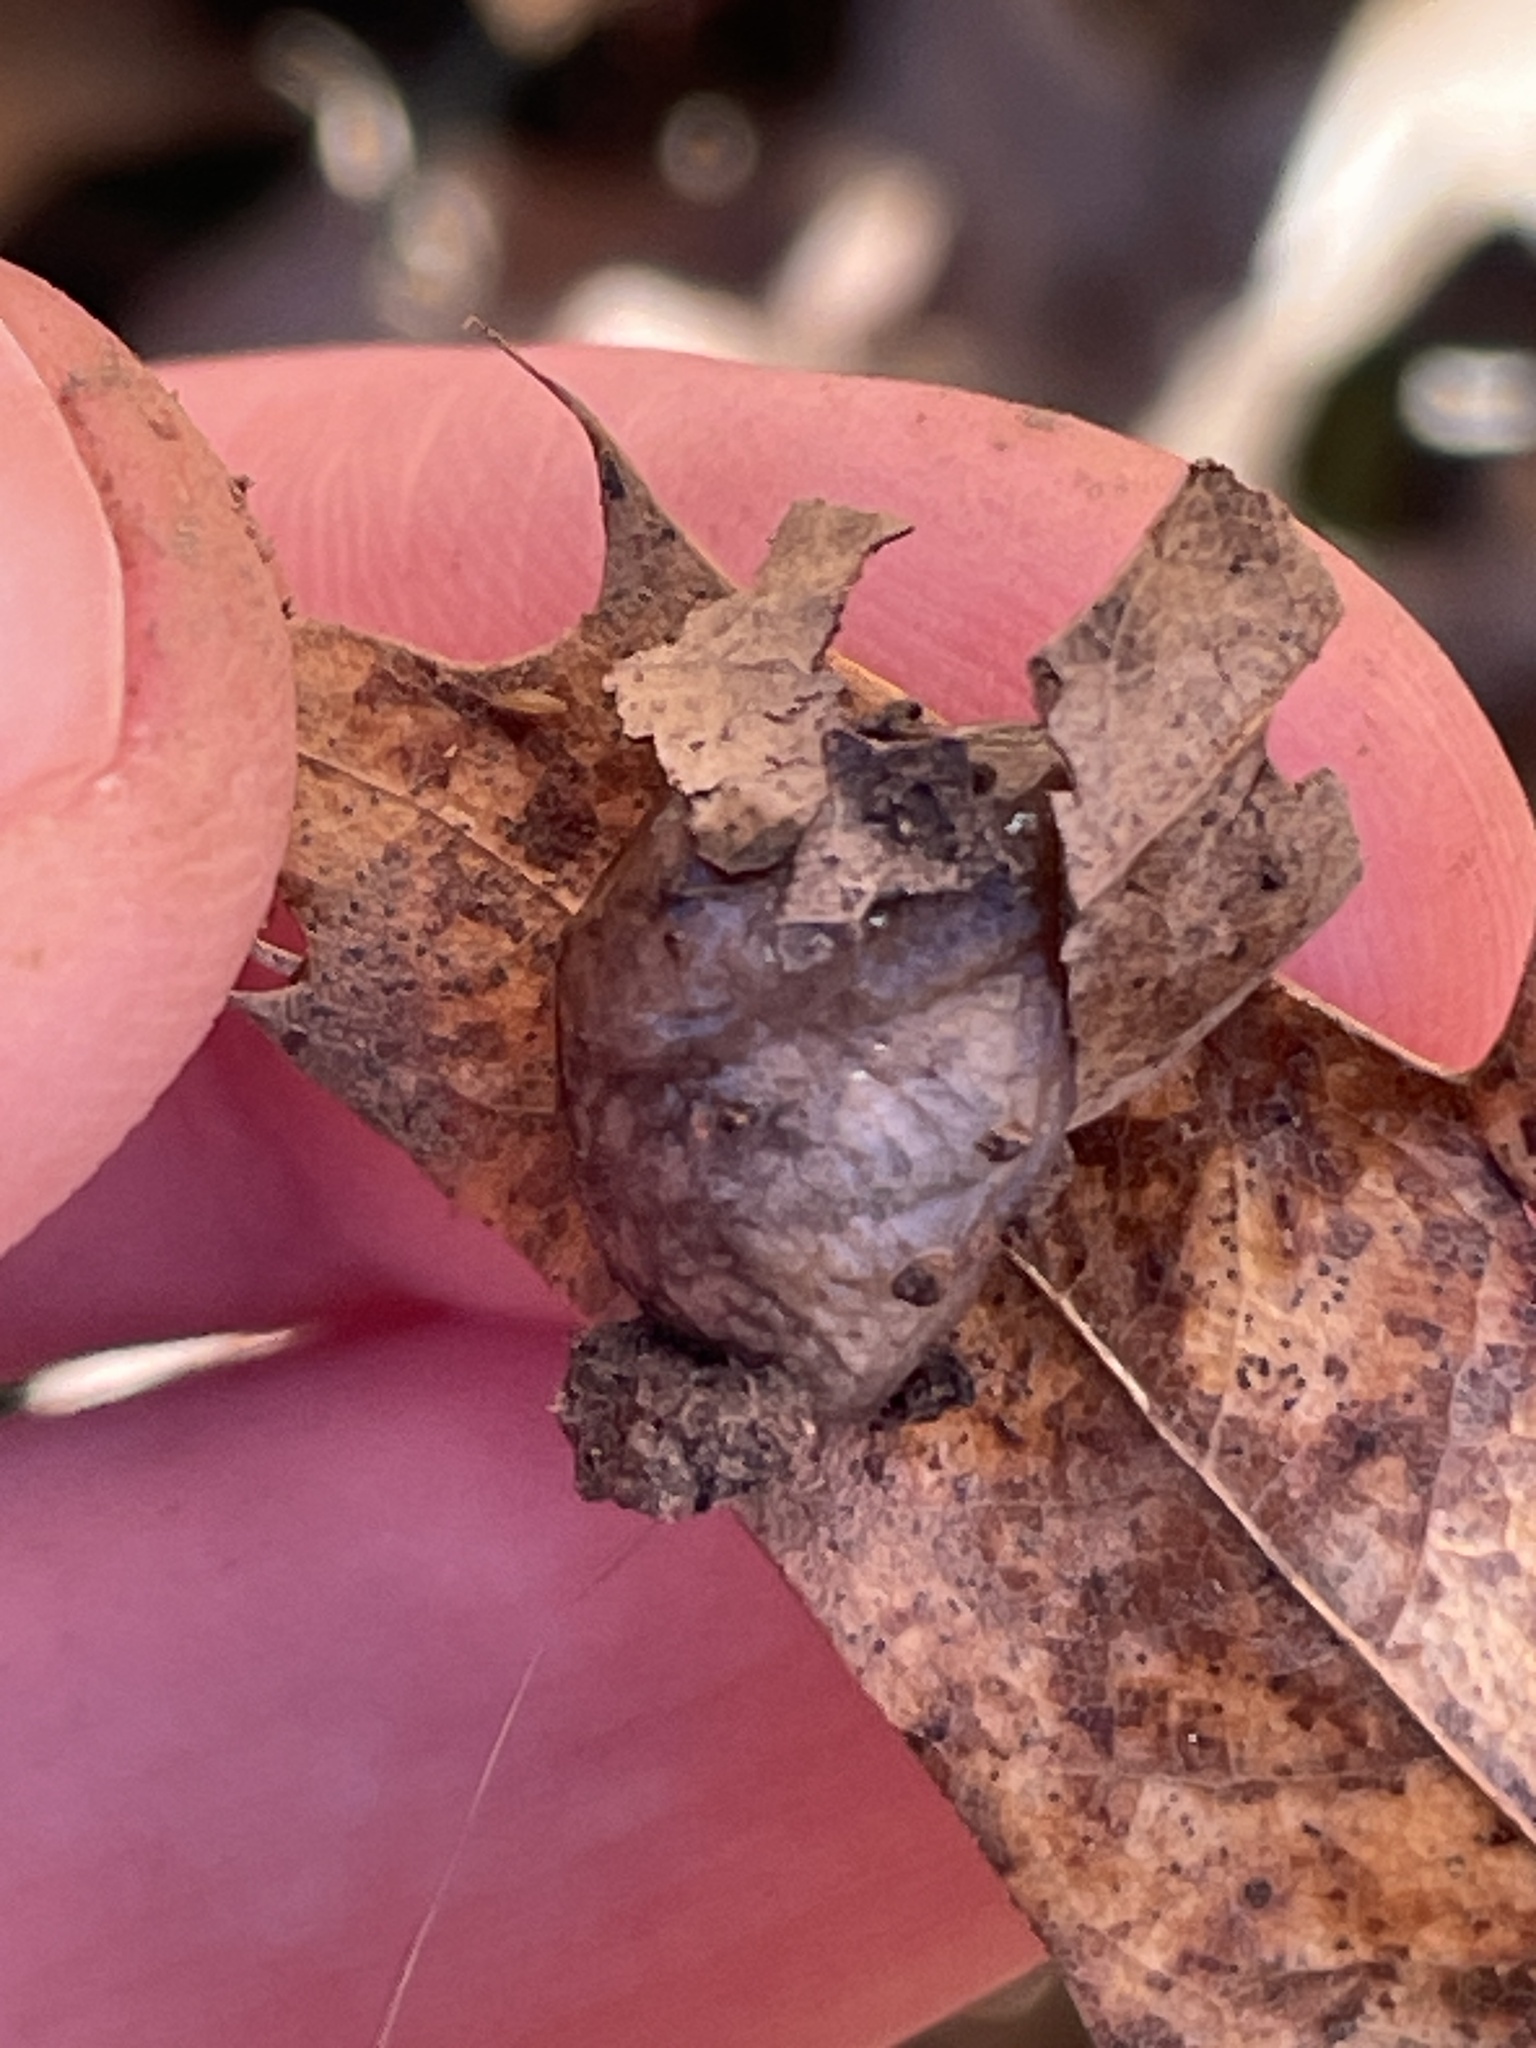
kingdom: Animalia
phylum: Mollusca
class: Gastropoda
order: Stylommatophora
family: Agriolimacidae
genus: Deroceras
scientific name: Deroceras reticulatum
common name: Gray field slug
